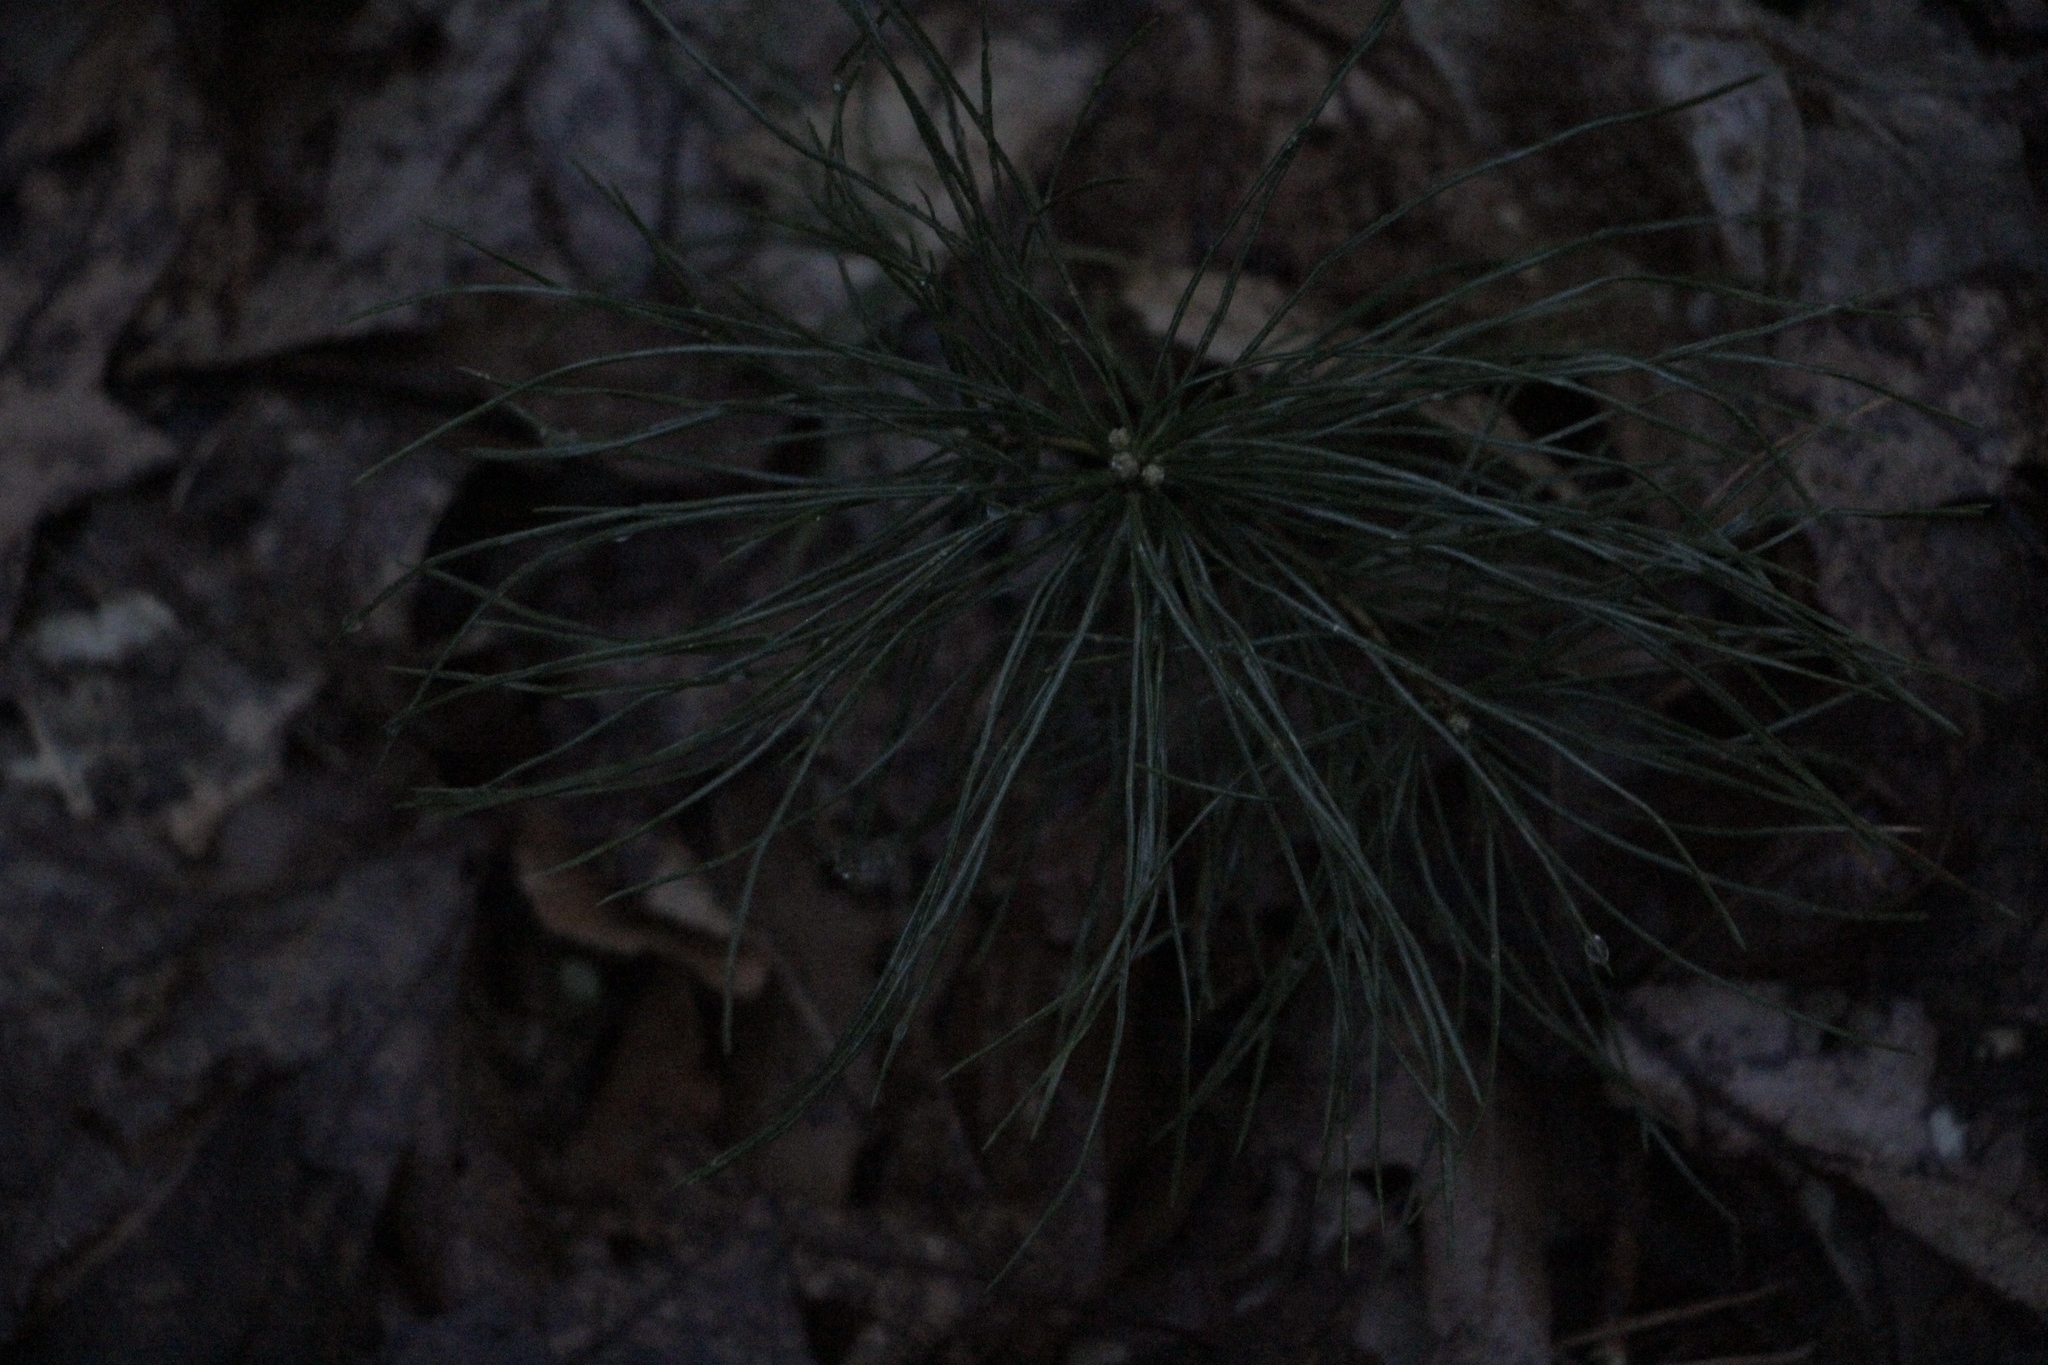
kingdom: Plantae
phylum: Tracheophyta
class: Pinopsida
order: Pinales
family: Pinaceae
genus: Pinus
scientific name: Pinus strobus
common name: Weymouth pine
